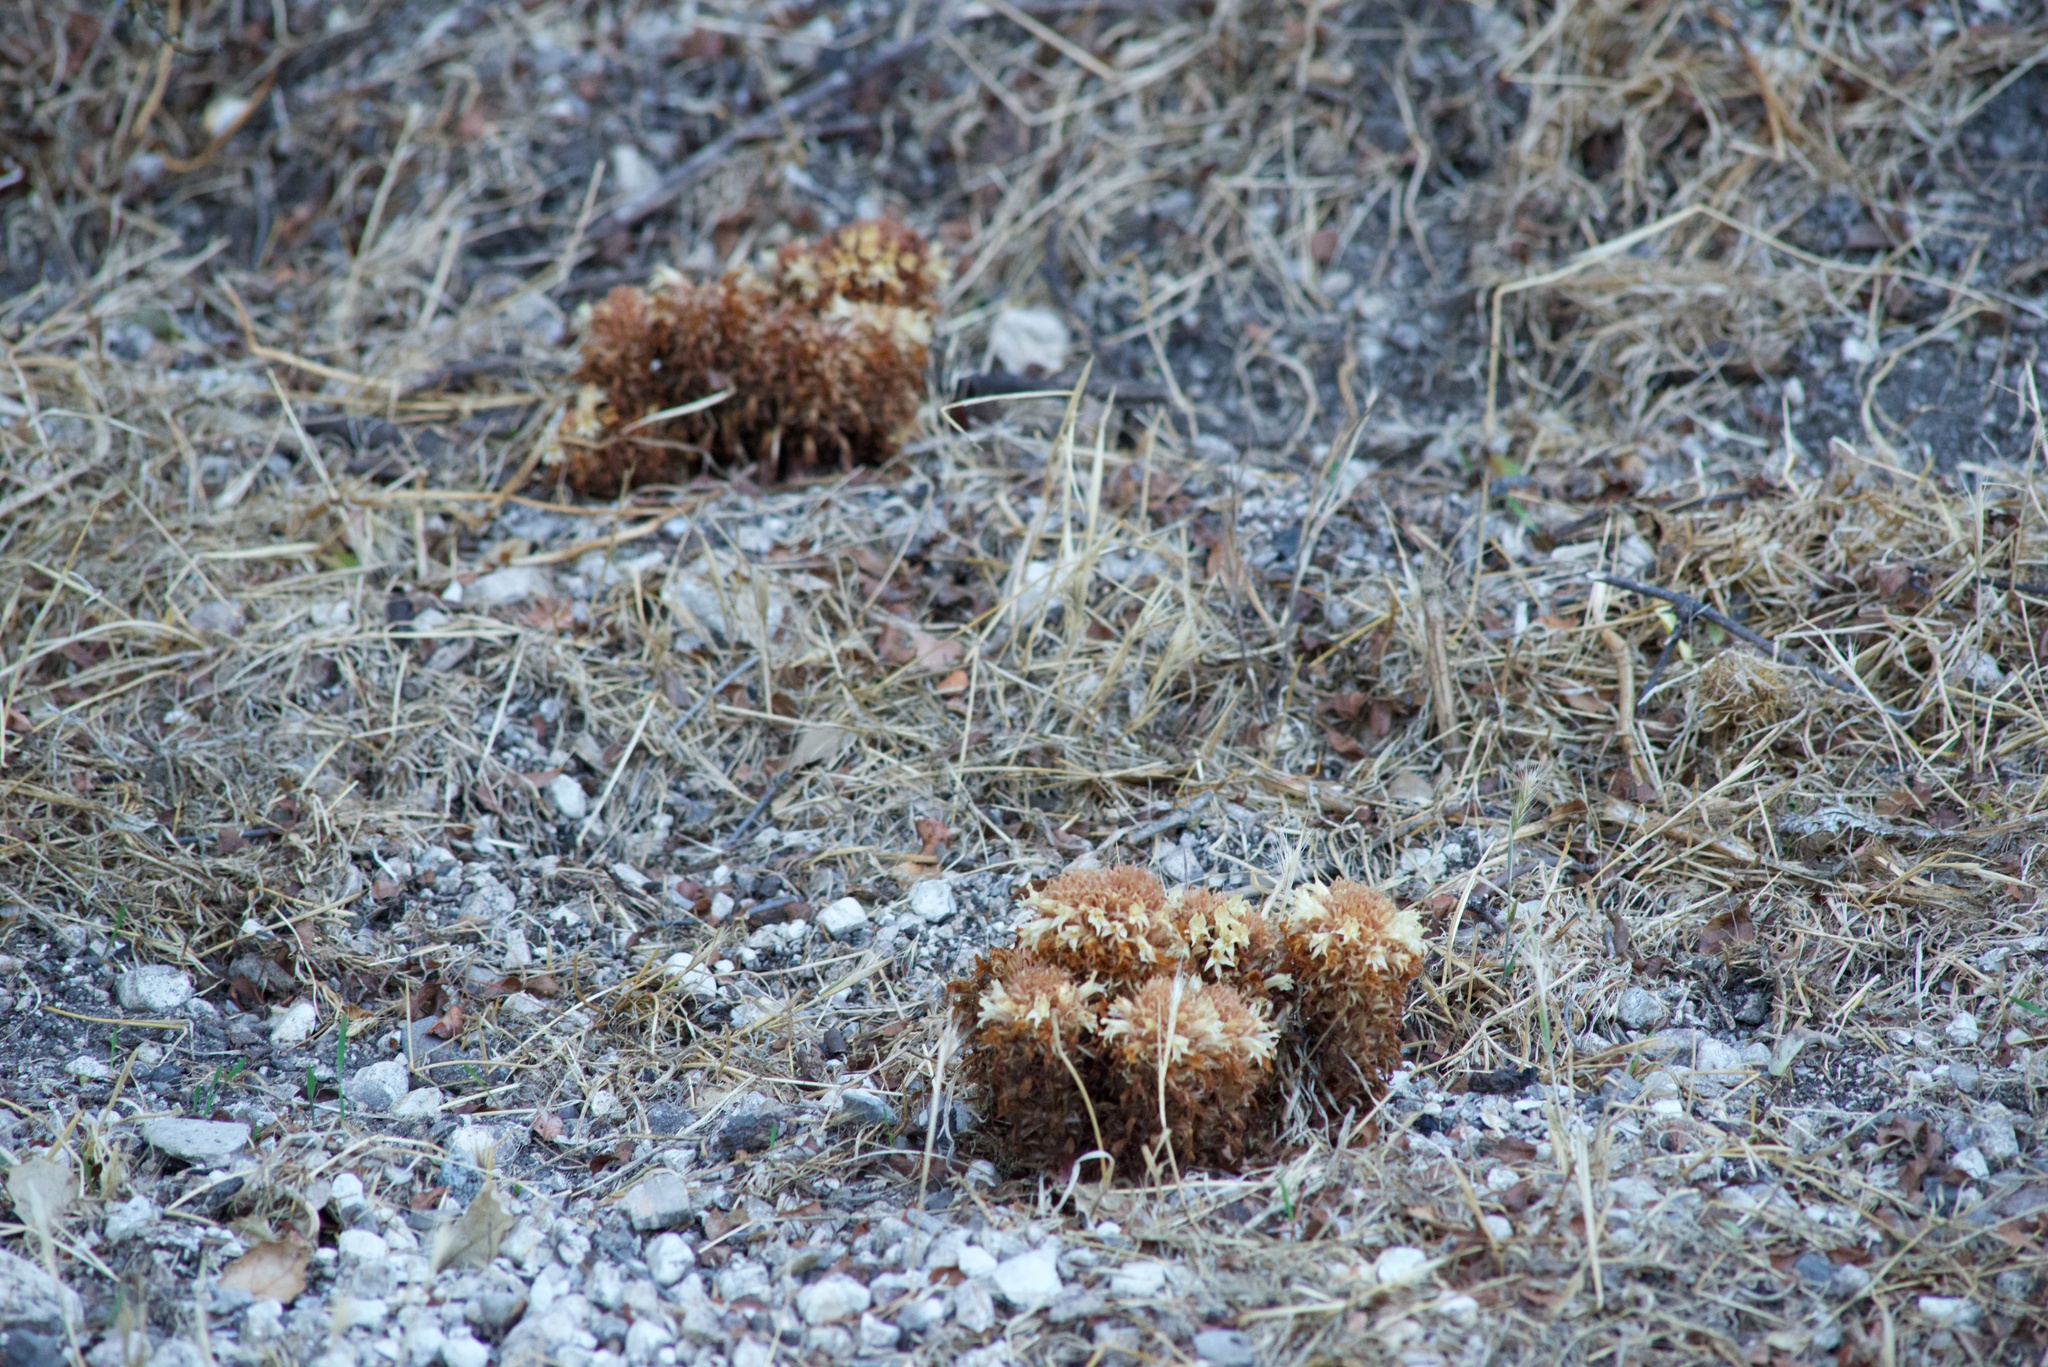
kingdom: Plantae
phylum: Tracheophyta
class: Magnoliopsida
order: Lamiales
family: Orobanchaceae
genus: Aphyllon
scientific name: Aphyllon vallicolum
